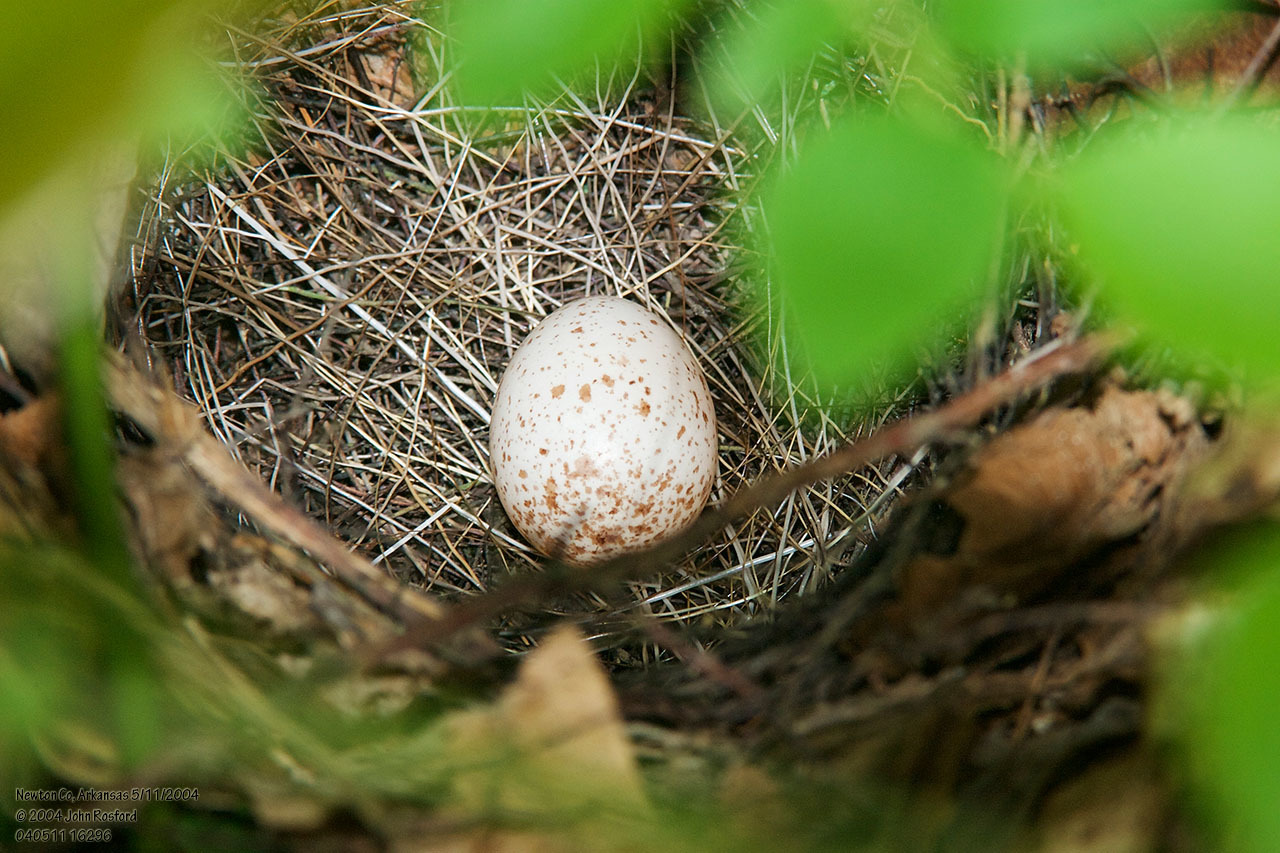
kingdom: Animalia
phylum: Chordata
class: Aves
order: Passeriformes
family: Parulidae
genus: Geothlypis
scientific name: Geothlypis formosa
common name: Kentucky warbler
